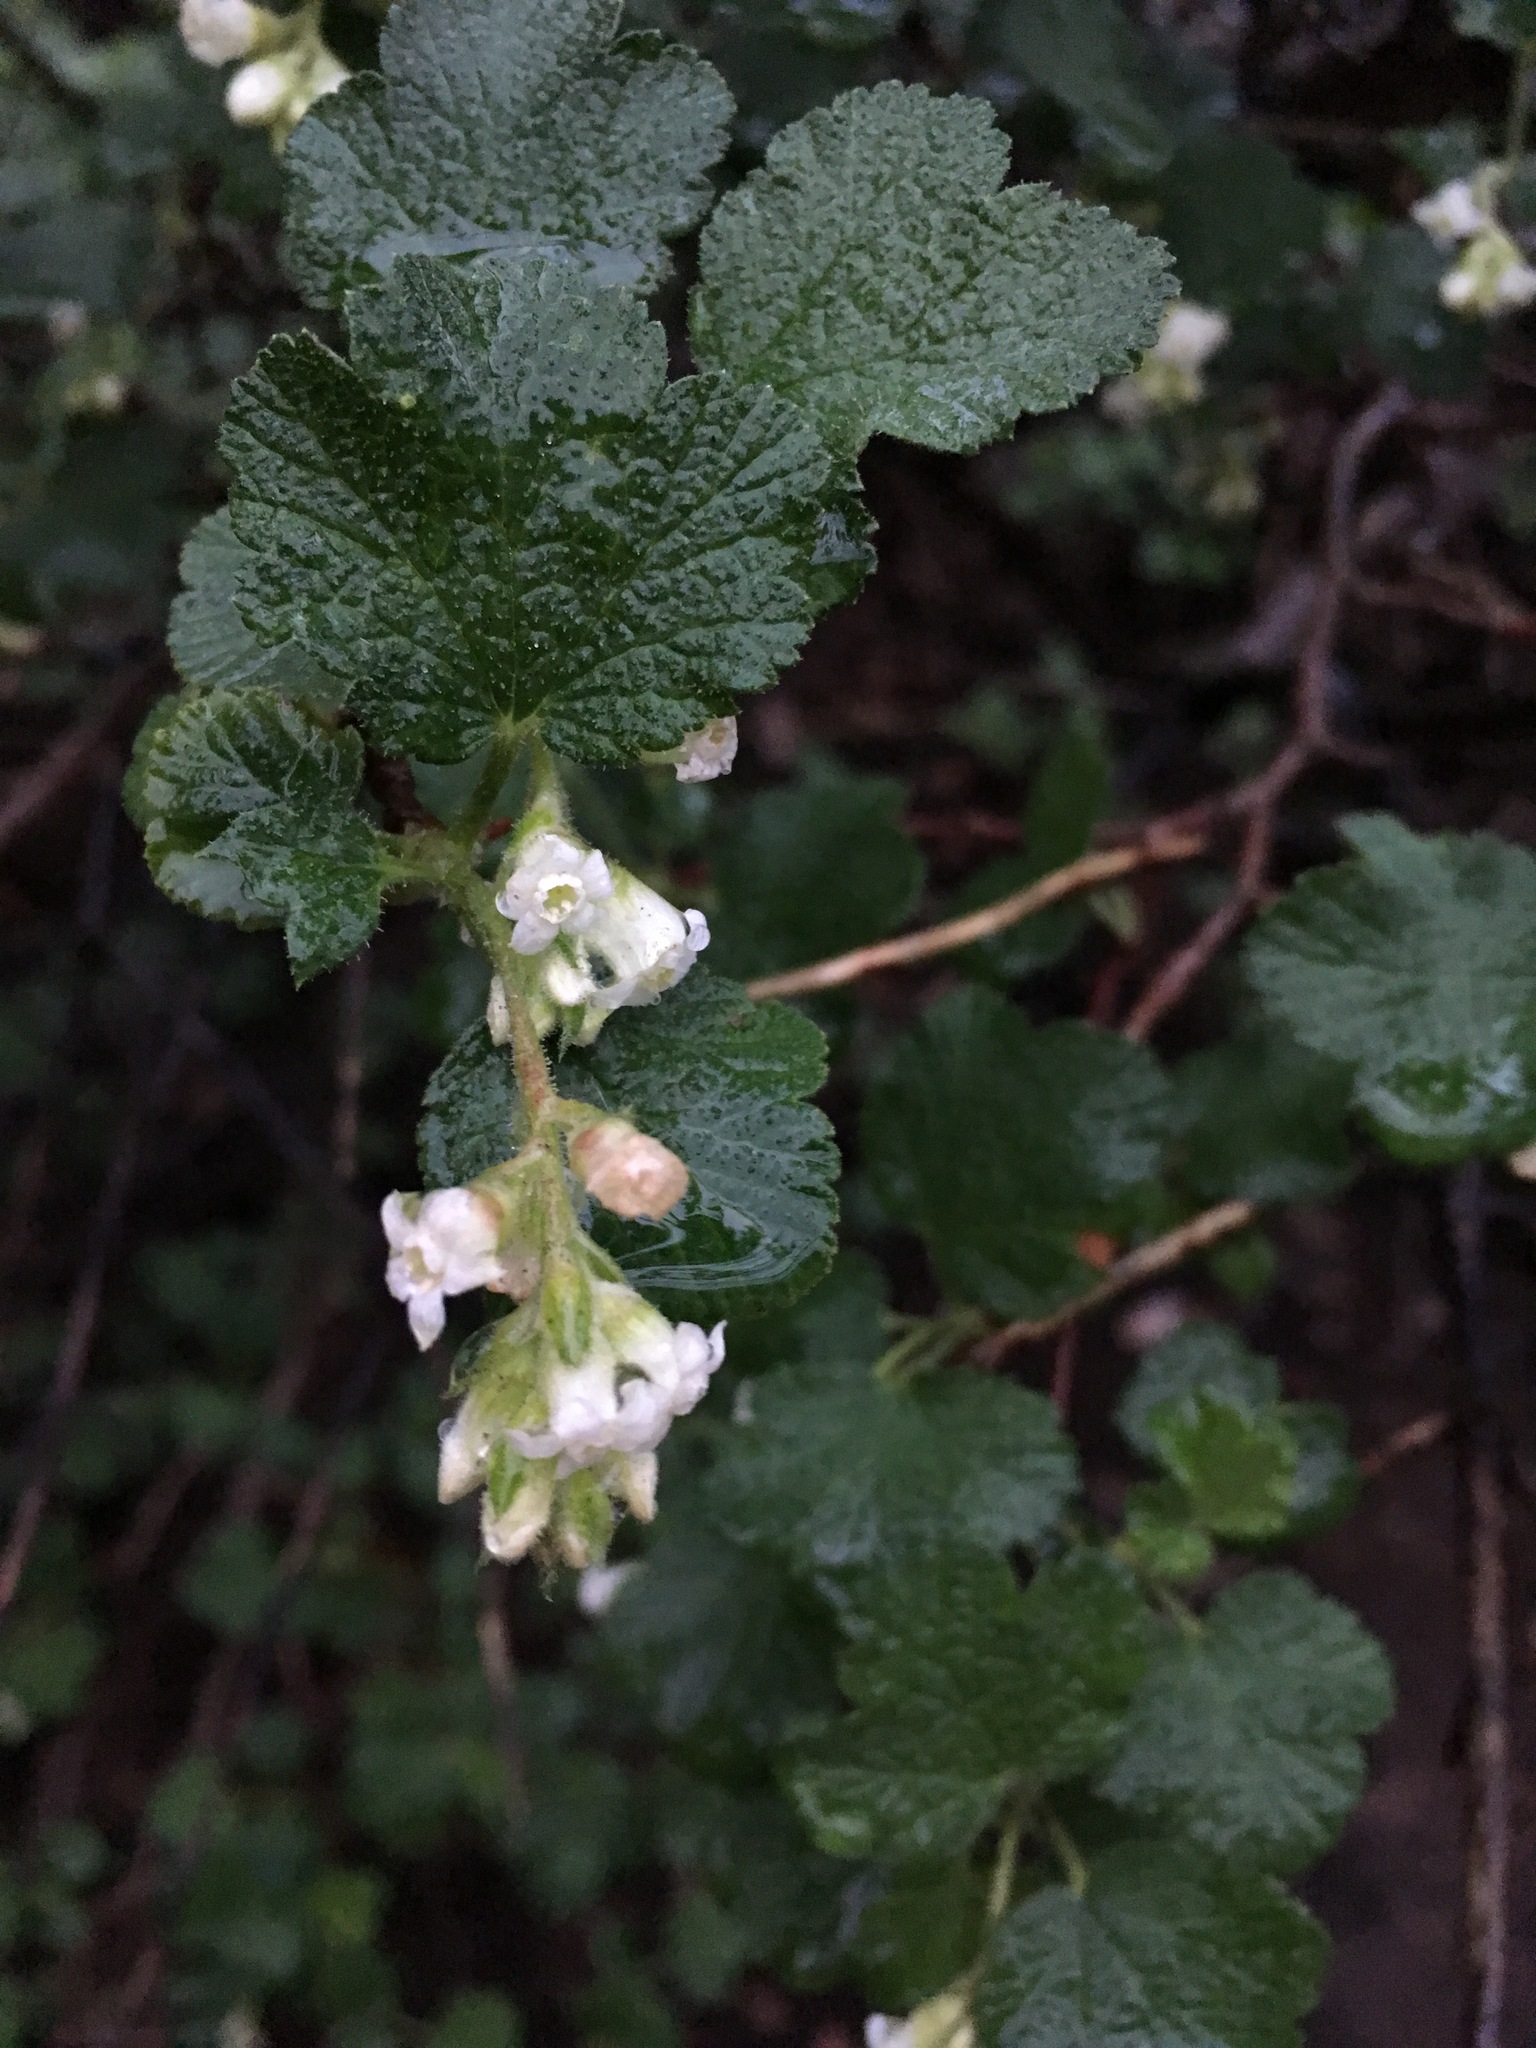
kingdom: Plantae
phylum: Tracheophyta
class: Magnoliopsida
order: Saxifragales
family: Grossulariaceae
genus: Ribes
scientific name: Ribes indecorum
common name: White-flower currant
